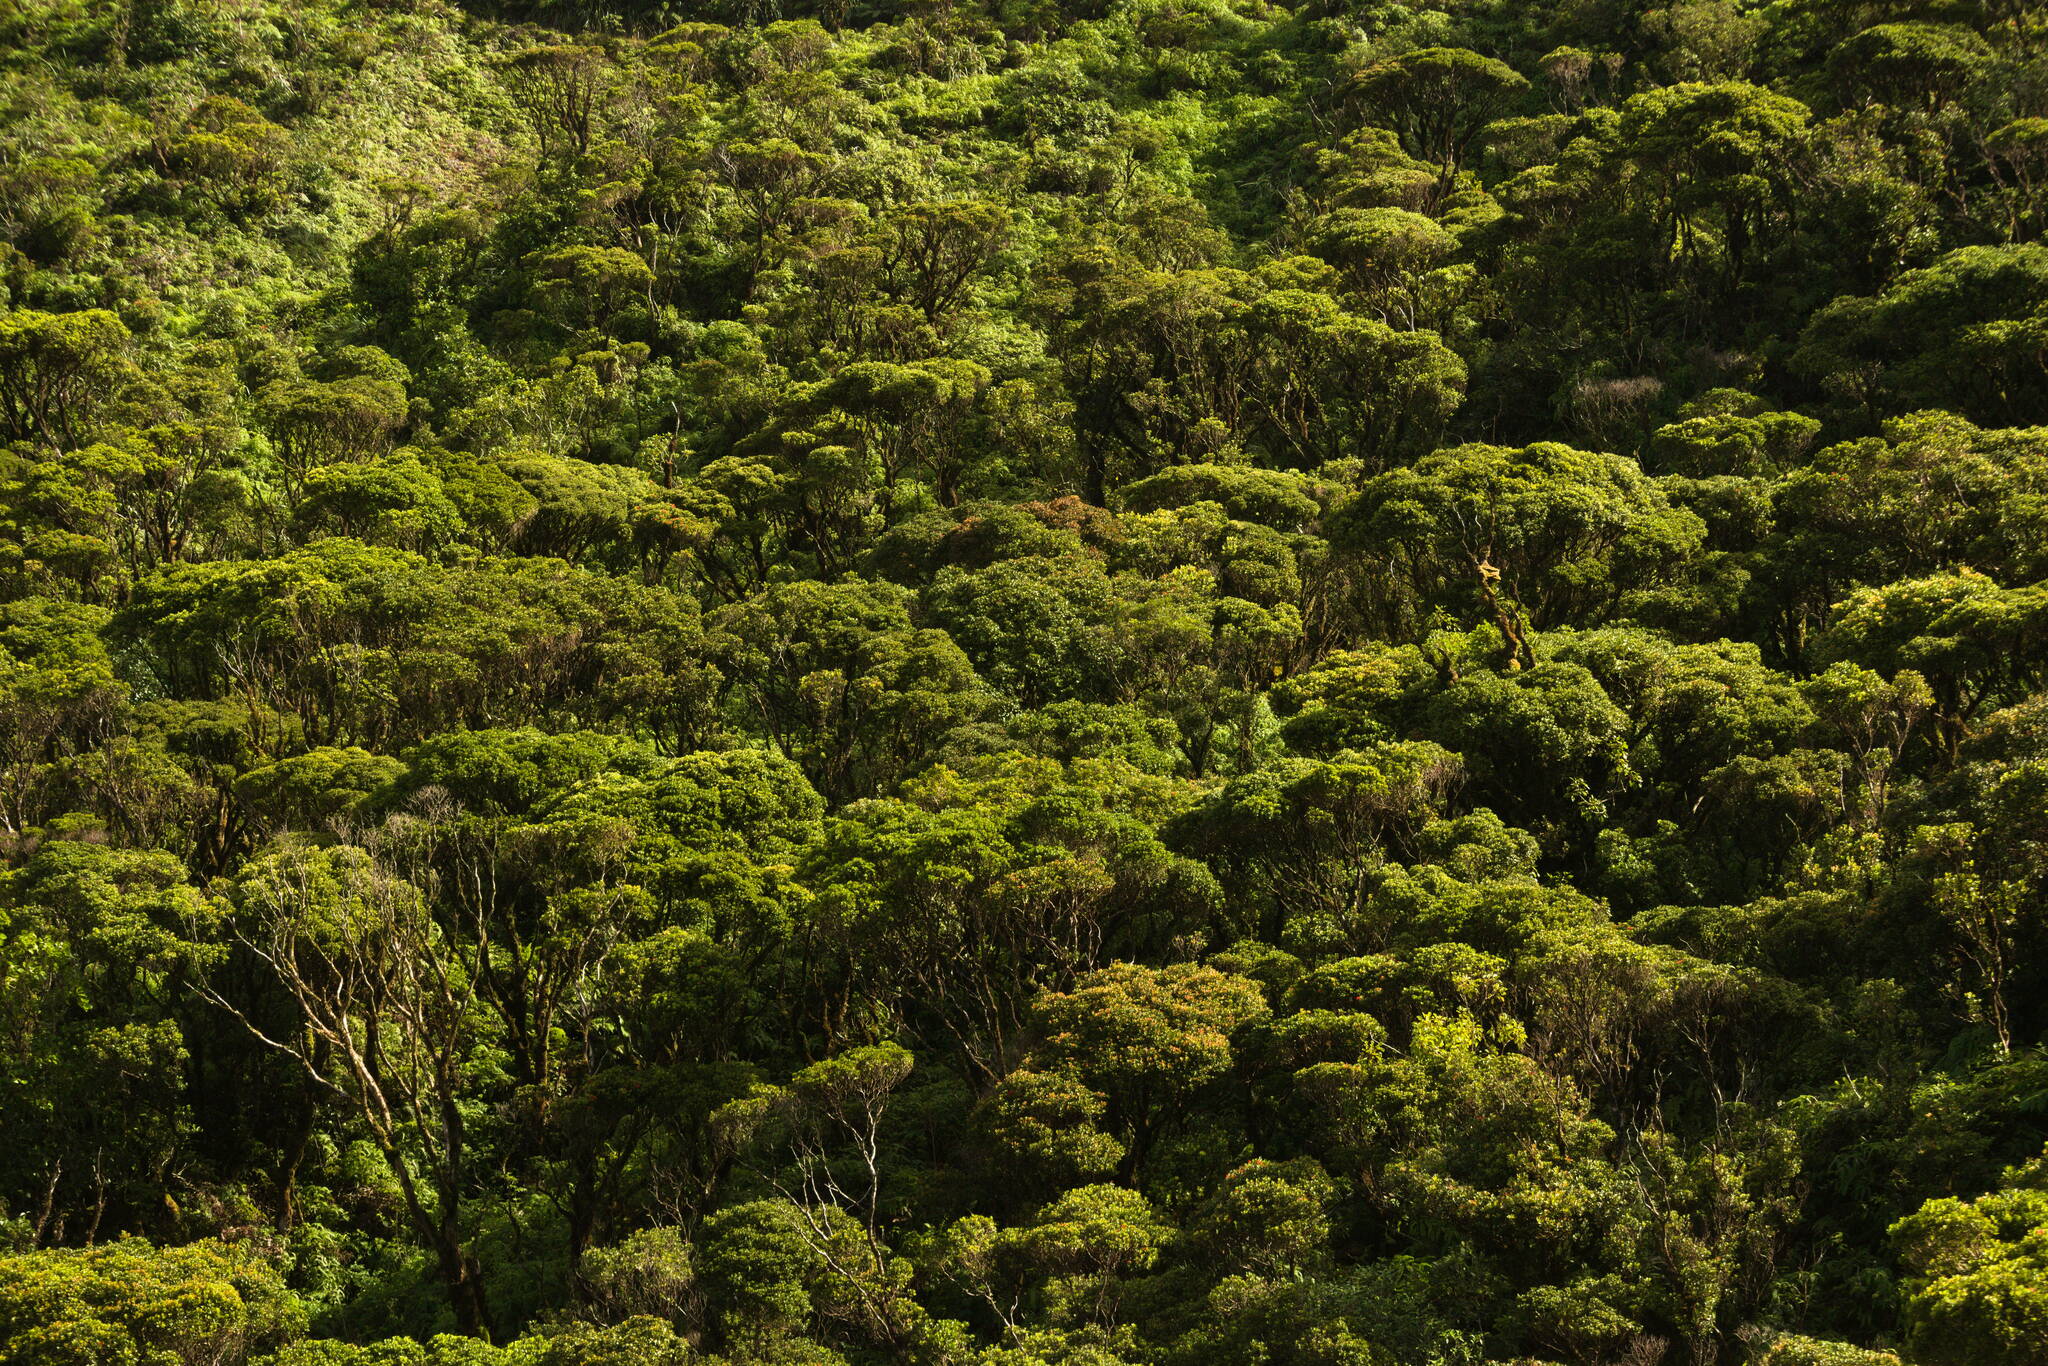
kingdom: Plantae
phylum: Tracheophyta
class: Magnoliopsida
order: Myrtales
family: Myrtaceae
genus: Metrosideros
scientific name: Metrosideros polymorpha
